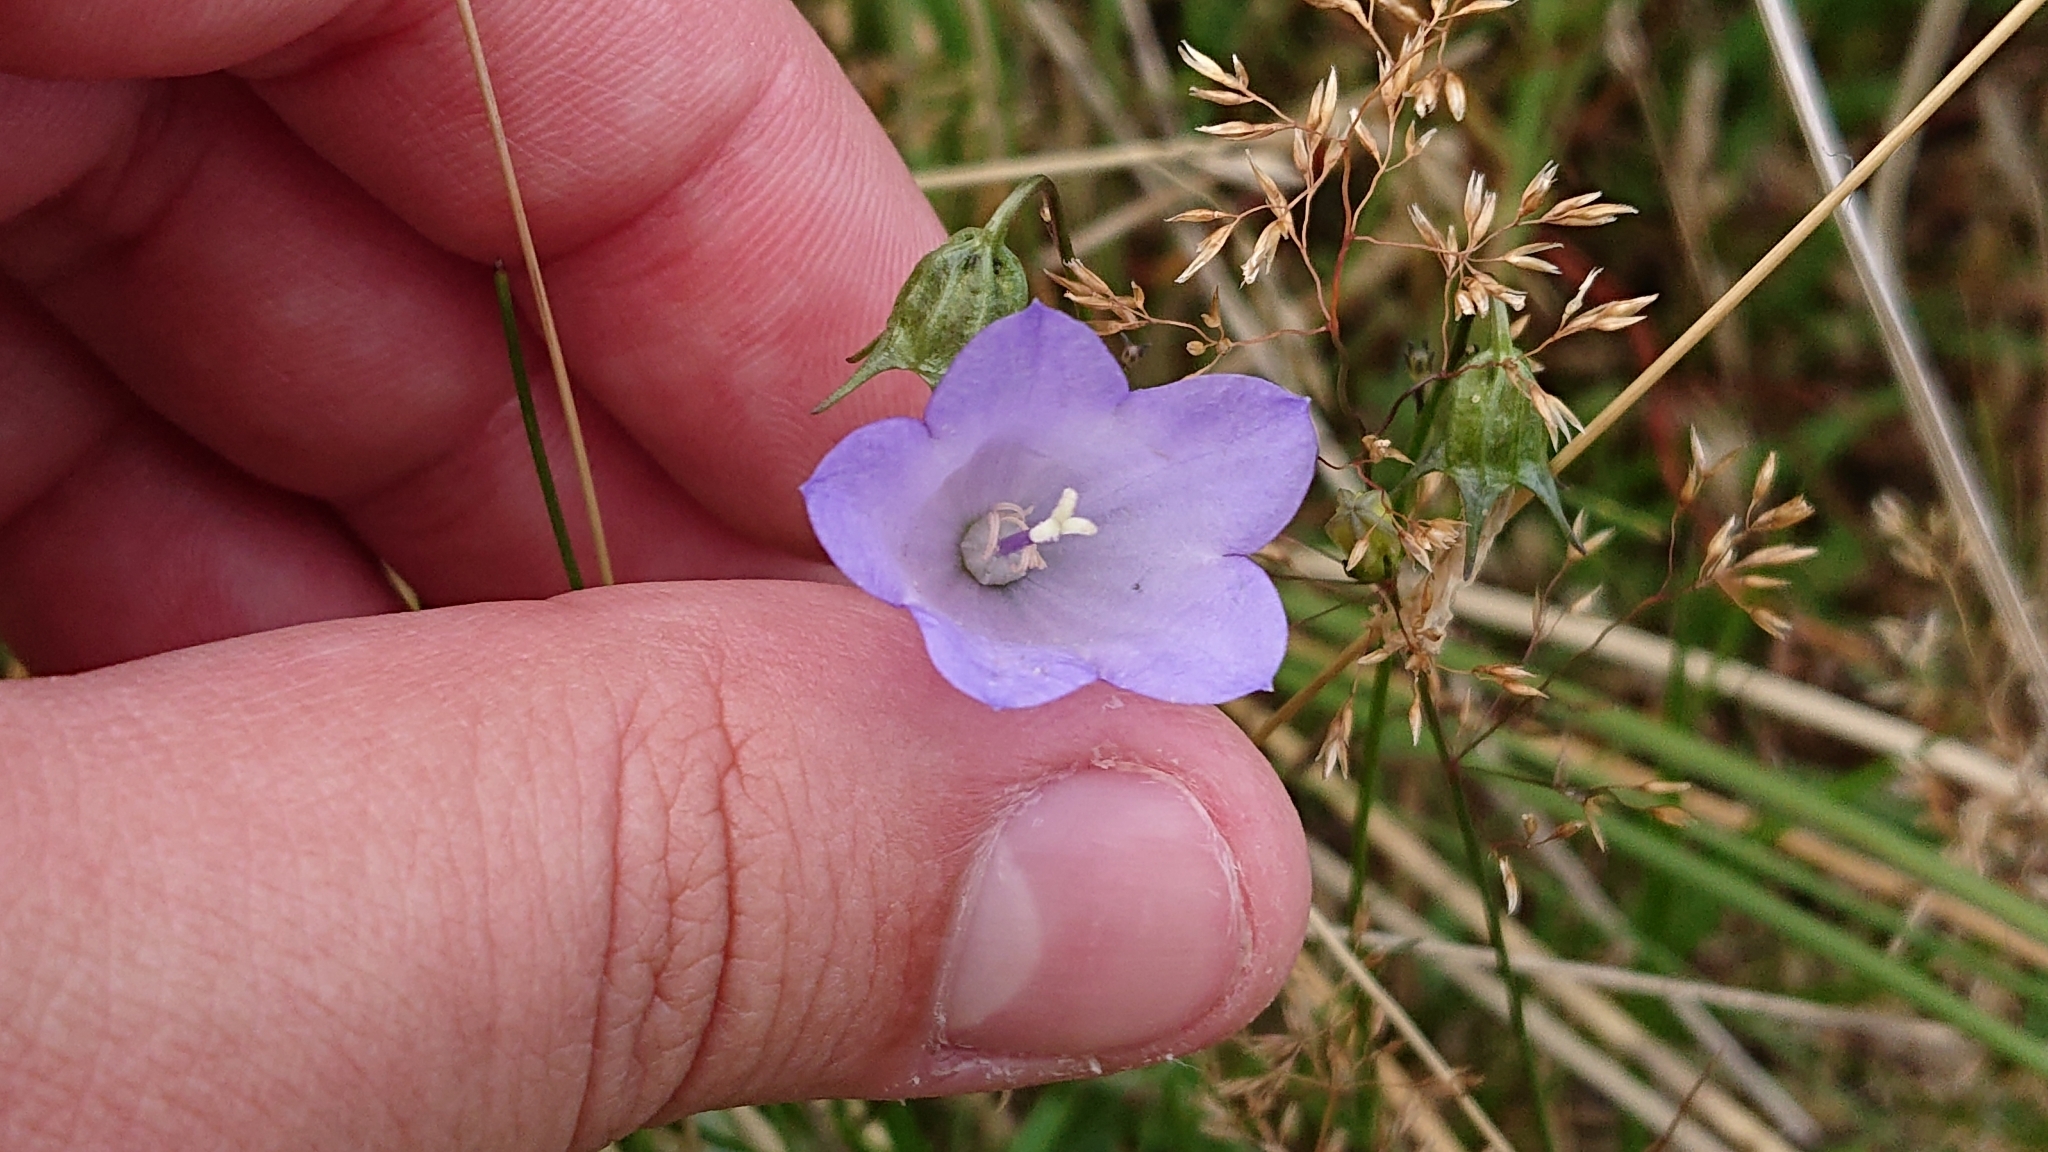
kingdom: Plantae
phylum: Tracheophyta
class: Magnoliopsida
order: Asterales
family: Campanulaceae
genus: Campanula
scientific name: Campanula rotundifolia
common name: Harebell
